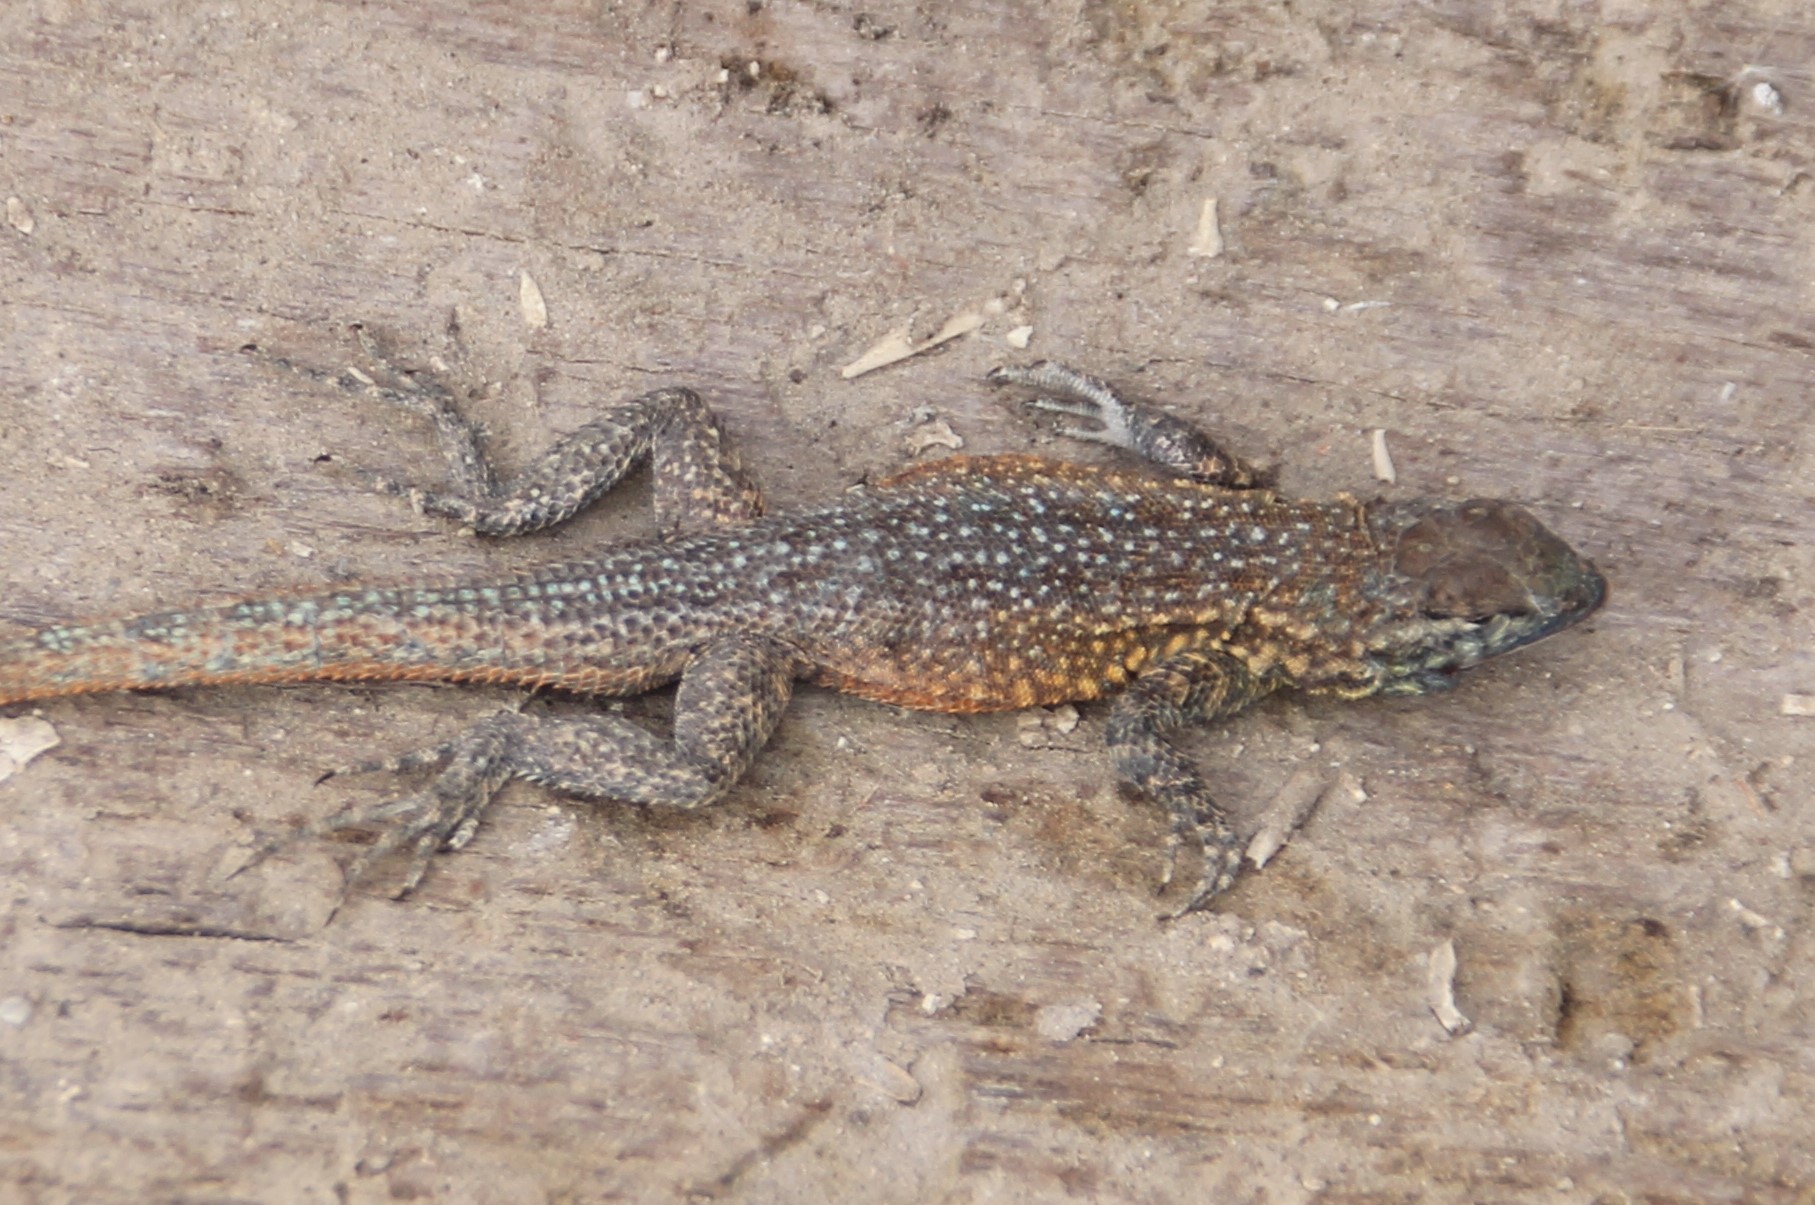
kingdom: Animalia
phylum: Chordata
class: Squamata
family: Phrynosomatidae
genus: Uta
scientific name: Uta stansburiana
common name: Side-blotched lizard
